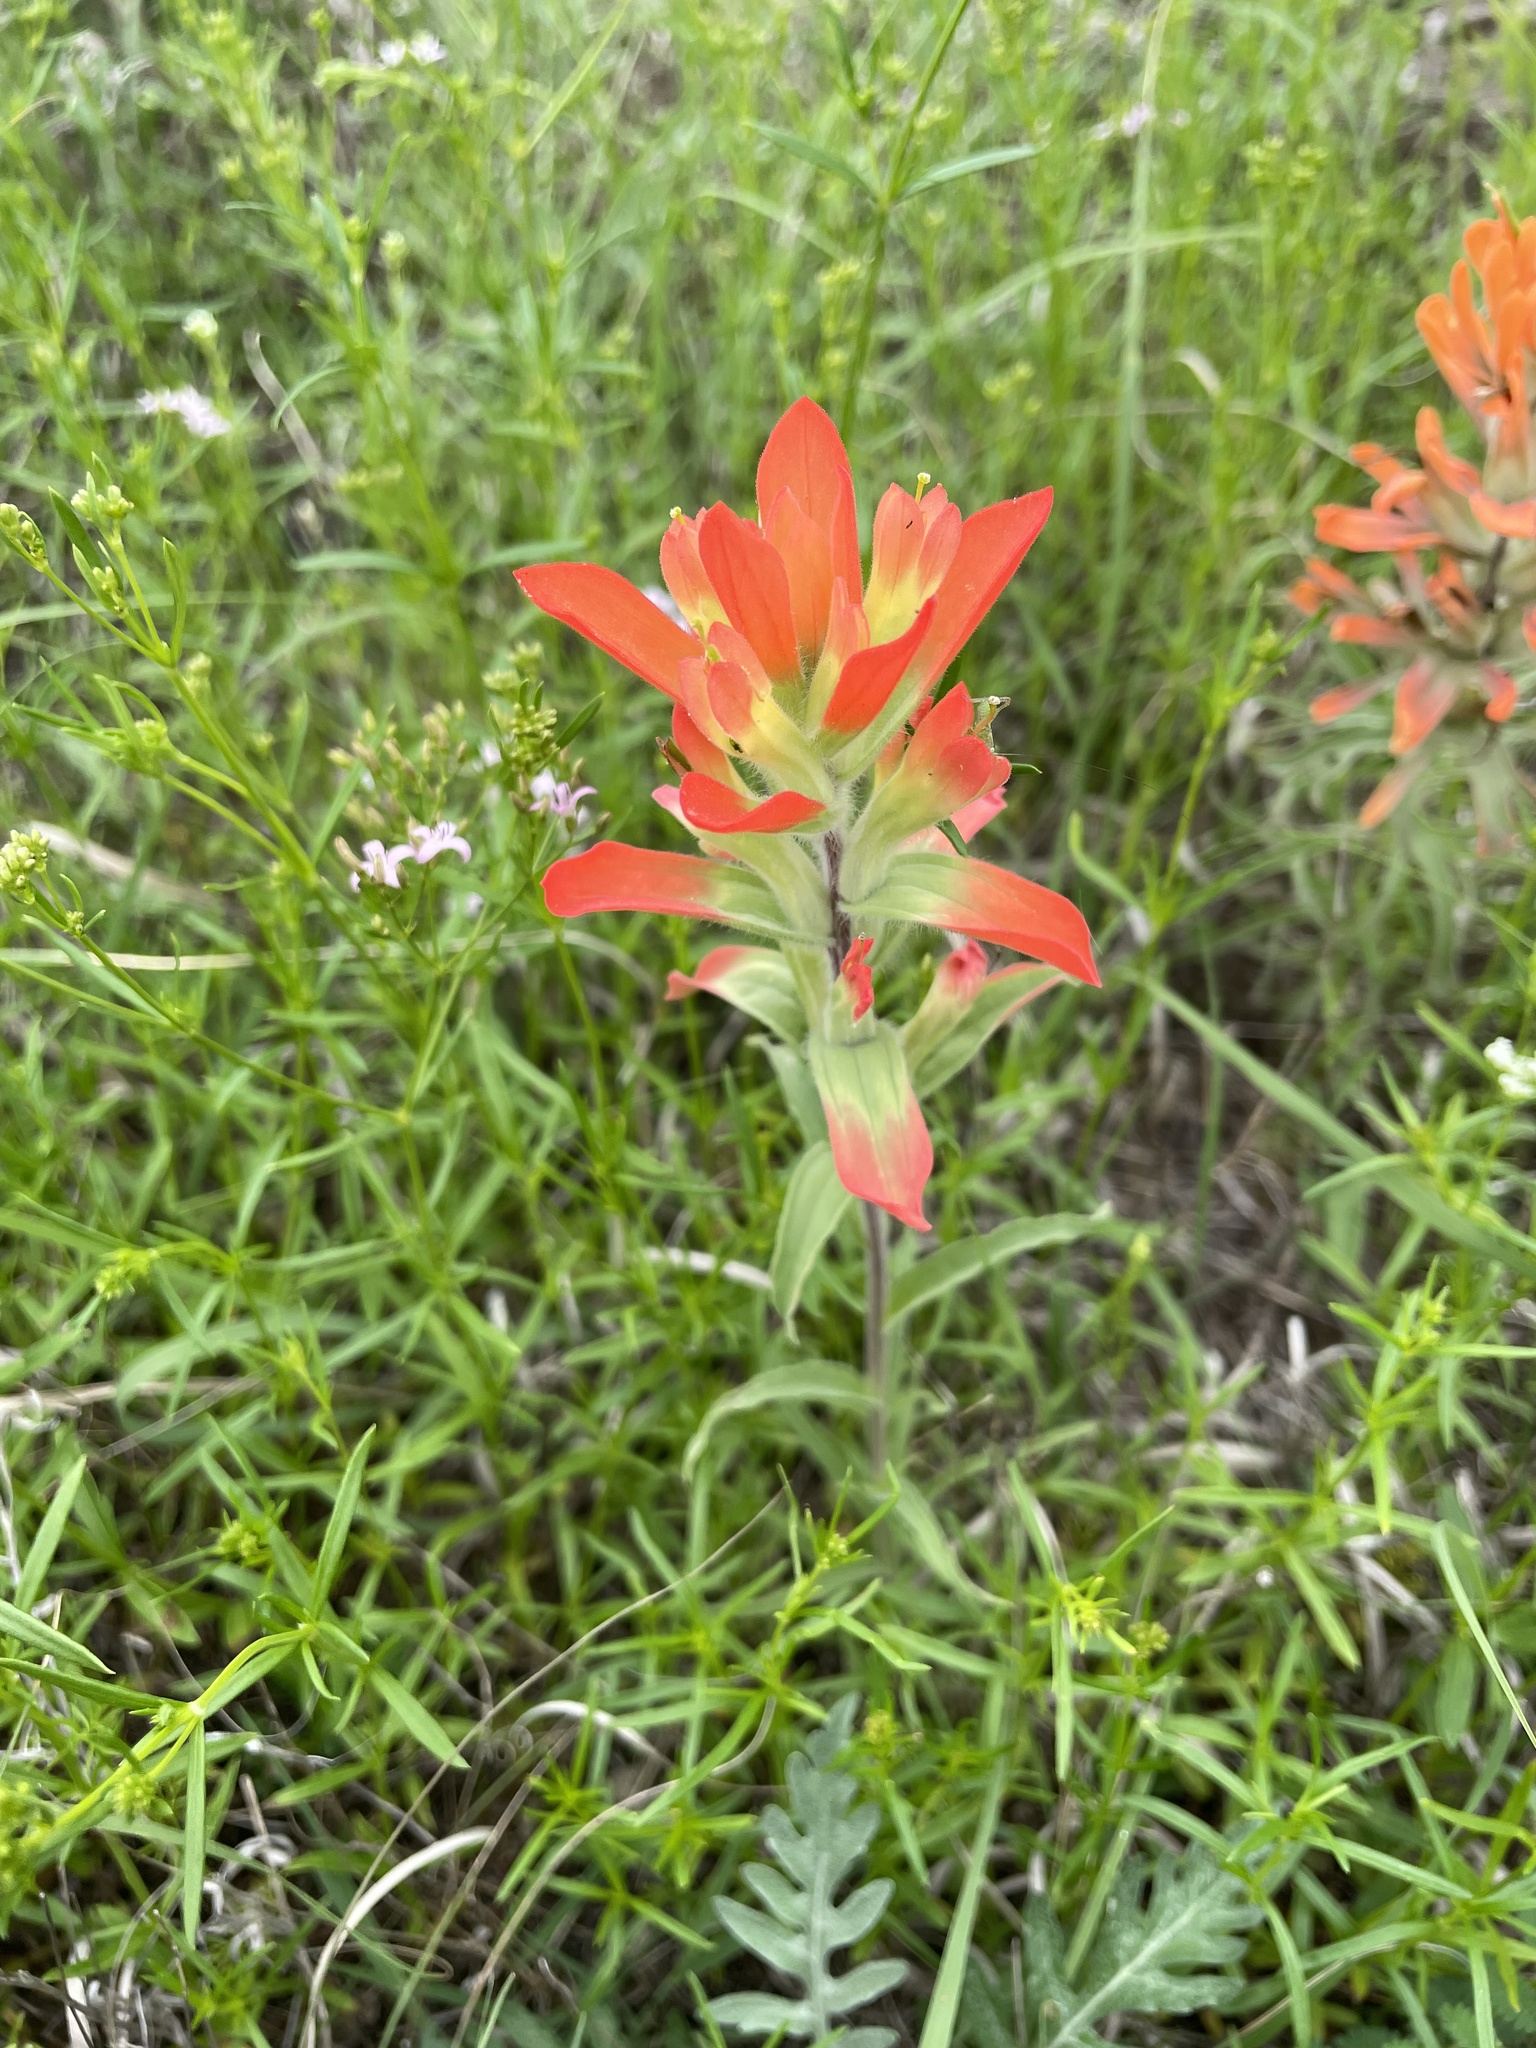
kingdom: Plantae
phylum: Tracheophyta
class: Magnoliopsida
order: Lamiales
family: Orobanchaceae
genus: Castilleja
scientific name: Castilleja indivisa
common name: Texas paintbrush
